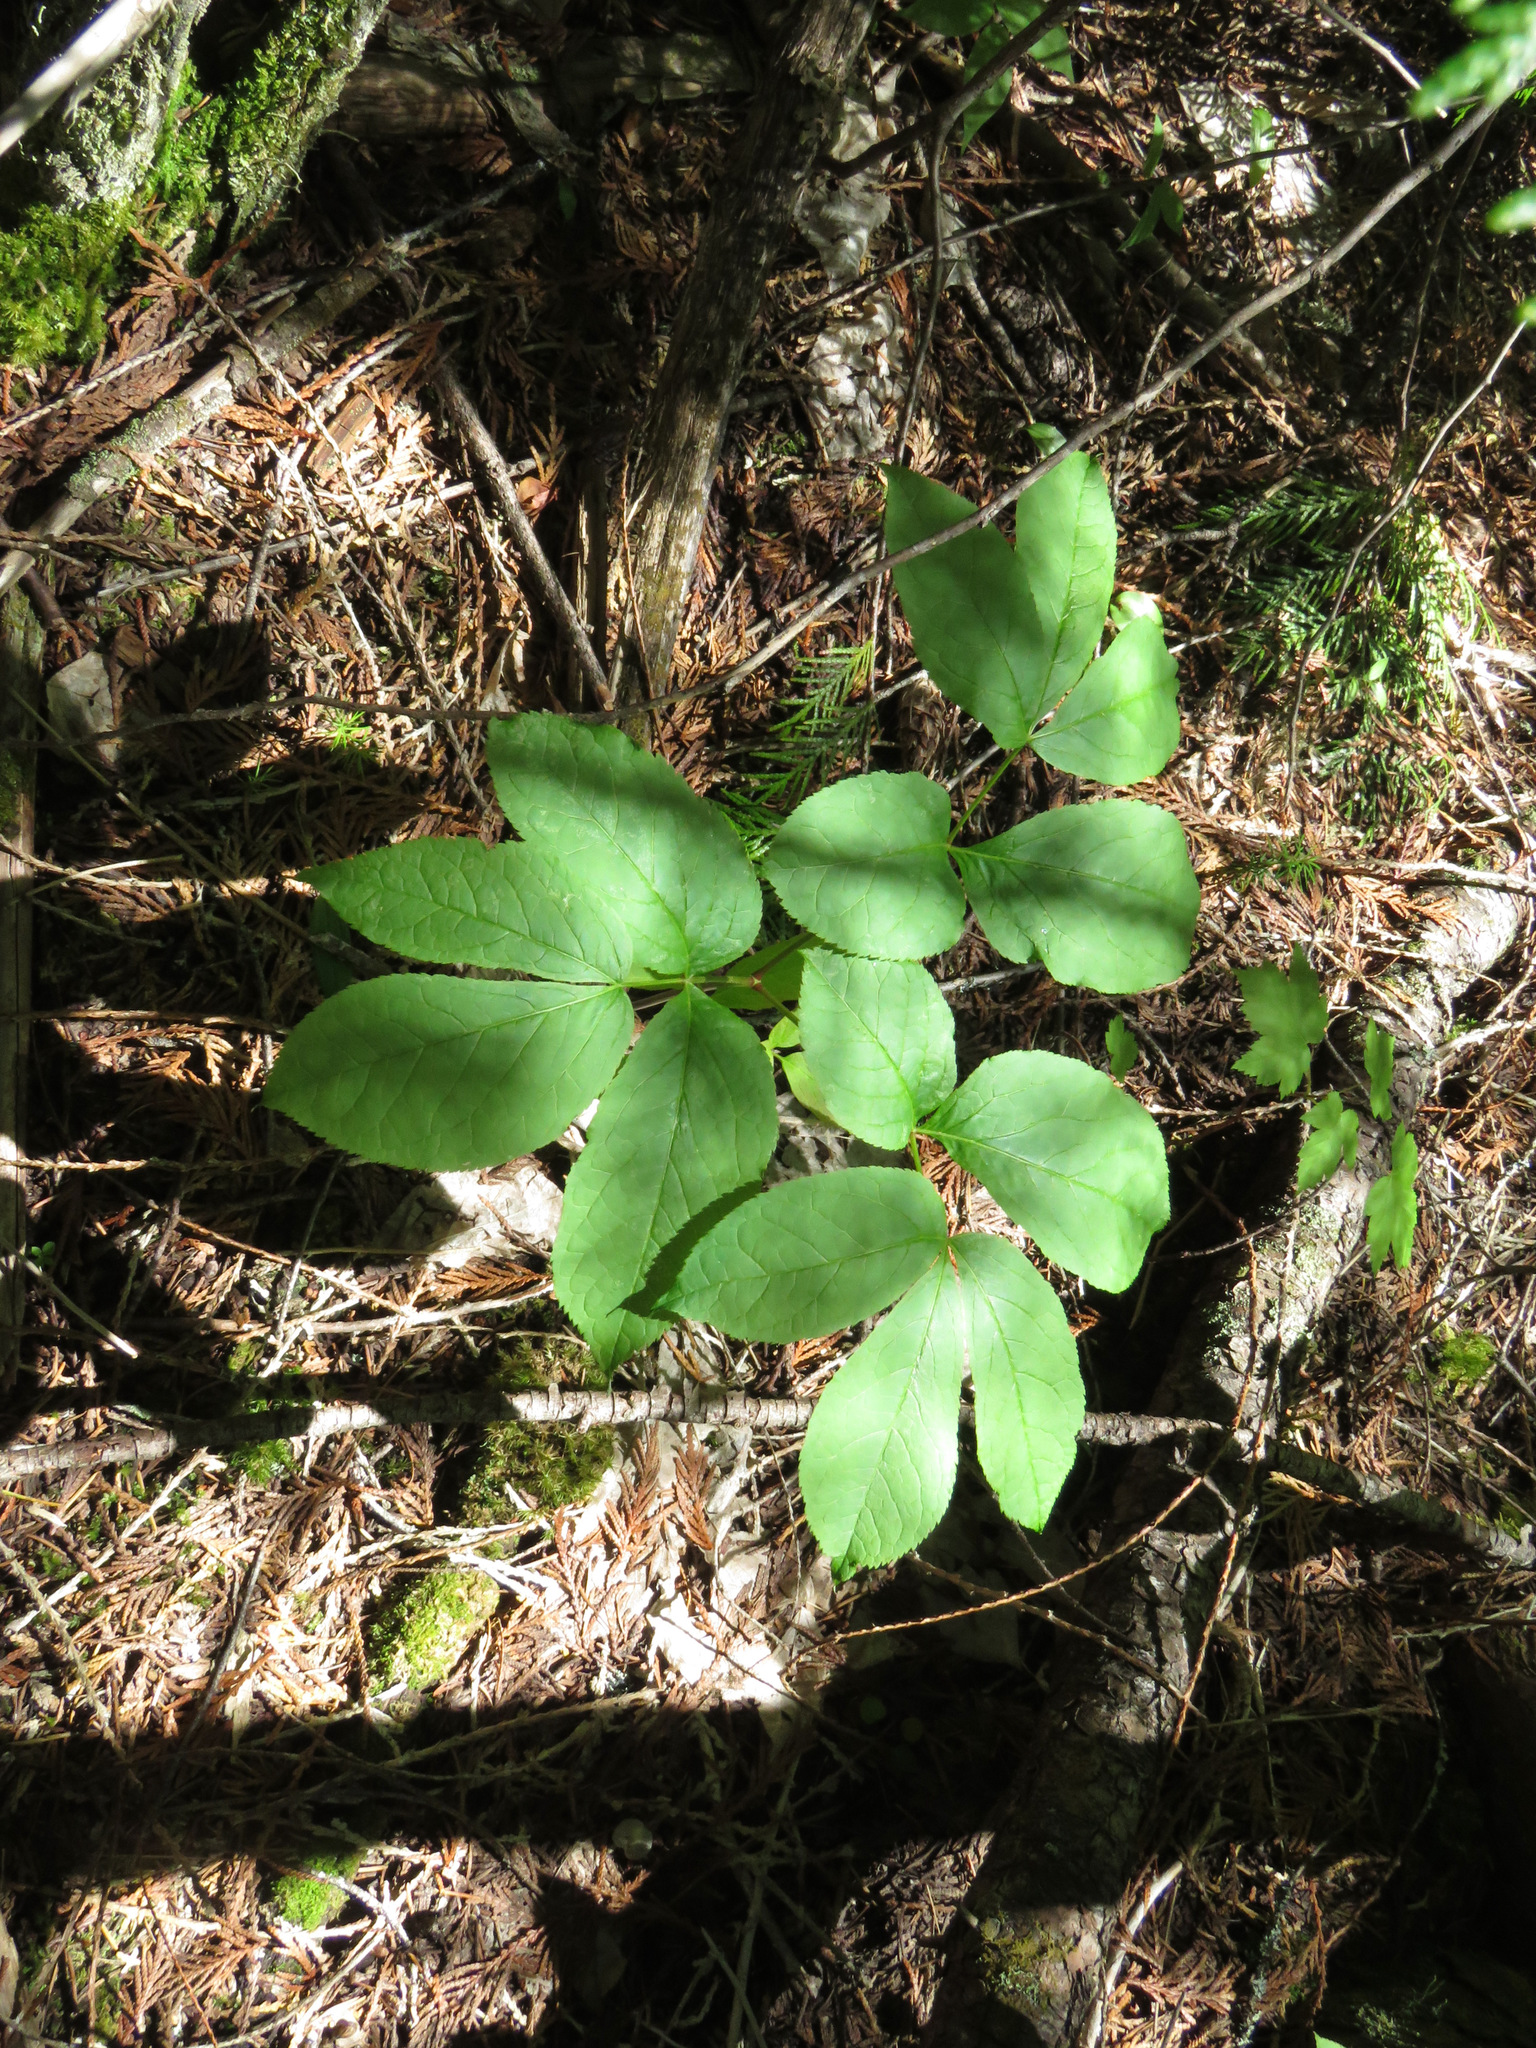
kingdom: Plantae
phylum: Tracheophyta
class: Magnoliopsida
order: Apiales
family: Araliaceae
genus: Aralia
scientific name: Aralia nudicaulis
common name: Wild sarsaparilla
